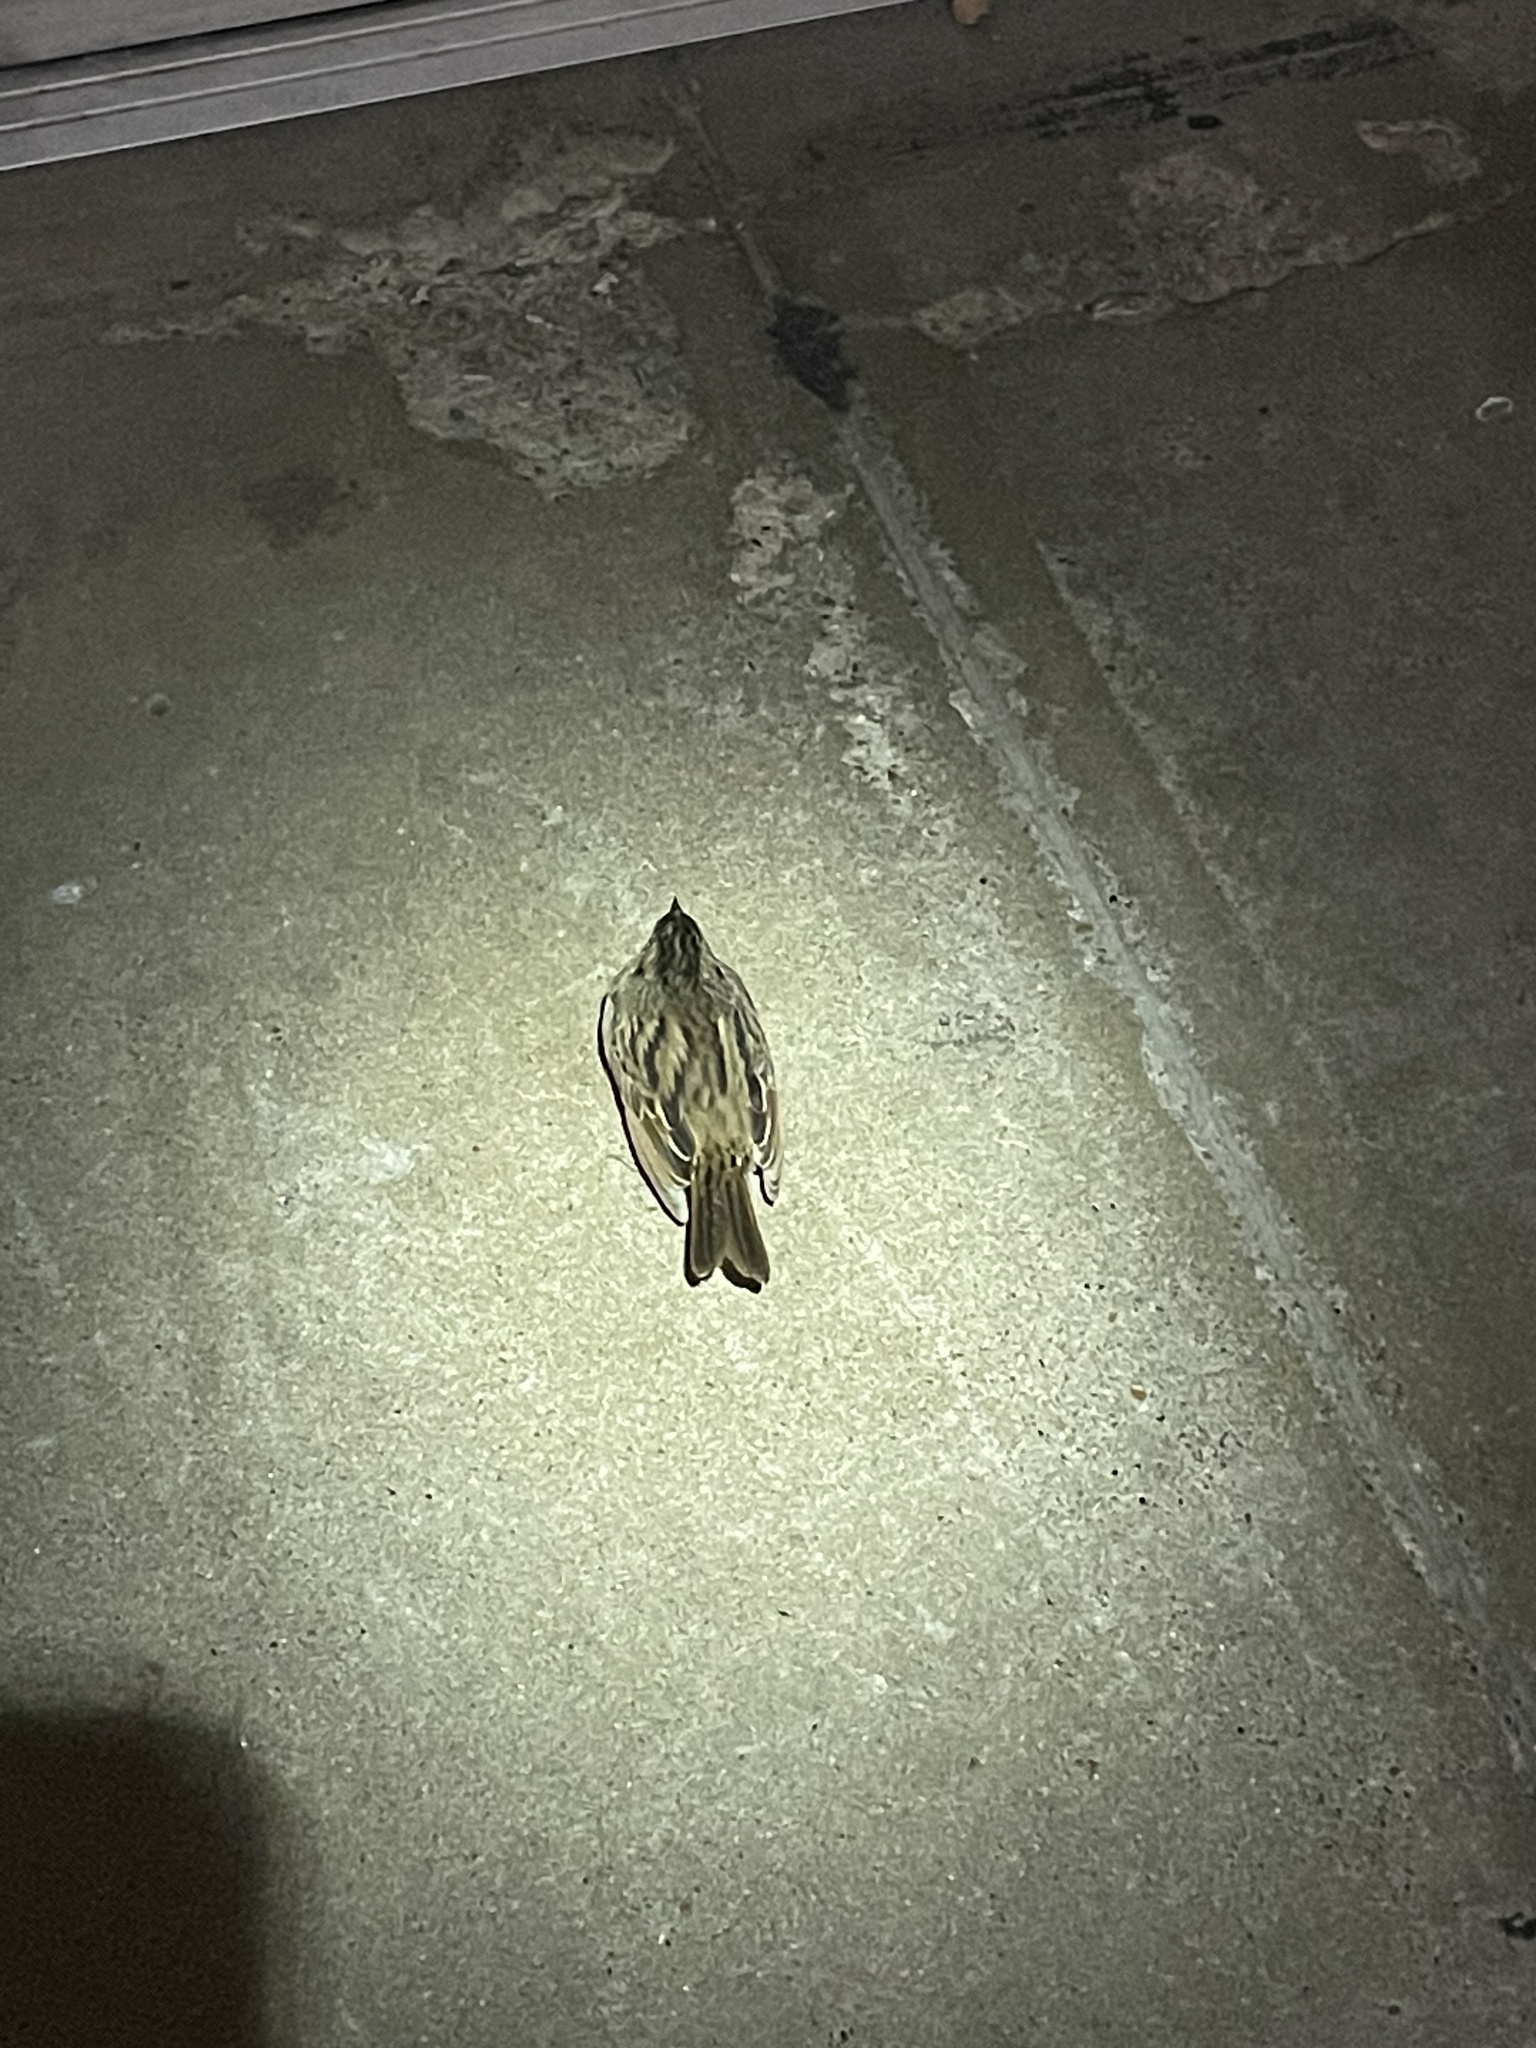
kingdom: Animalia
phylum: Chordata
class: Aves
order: Passeriformes
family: Passerellidae
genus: Passerculus
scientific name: Passerculus sandwichensis
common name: Savannah sparrow
